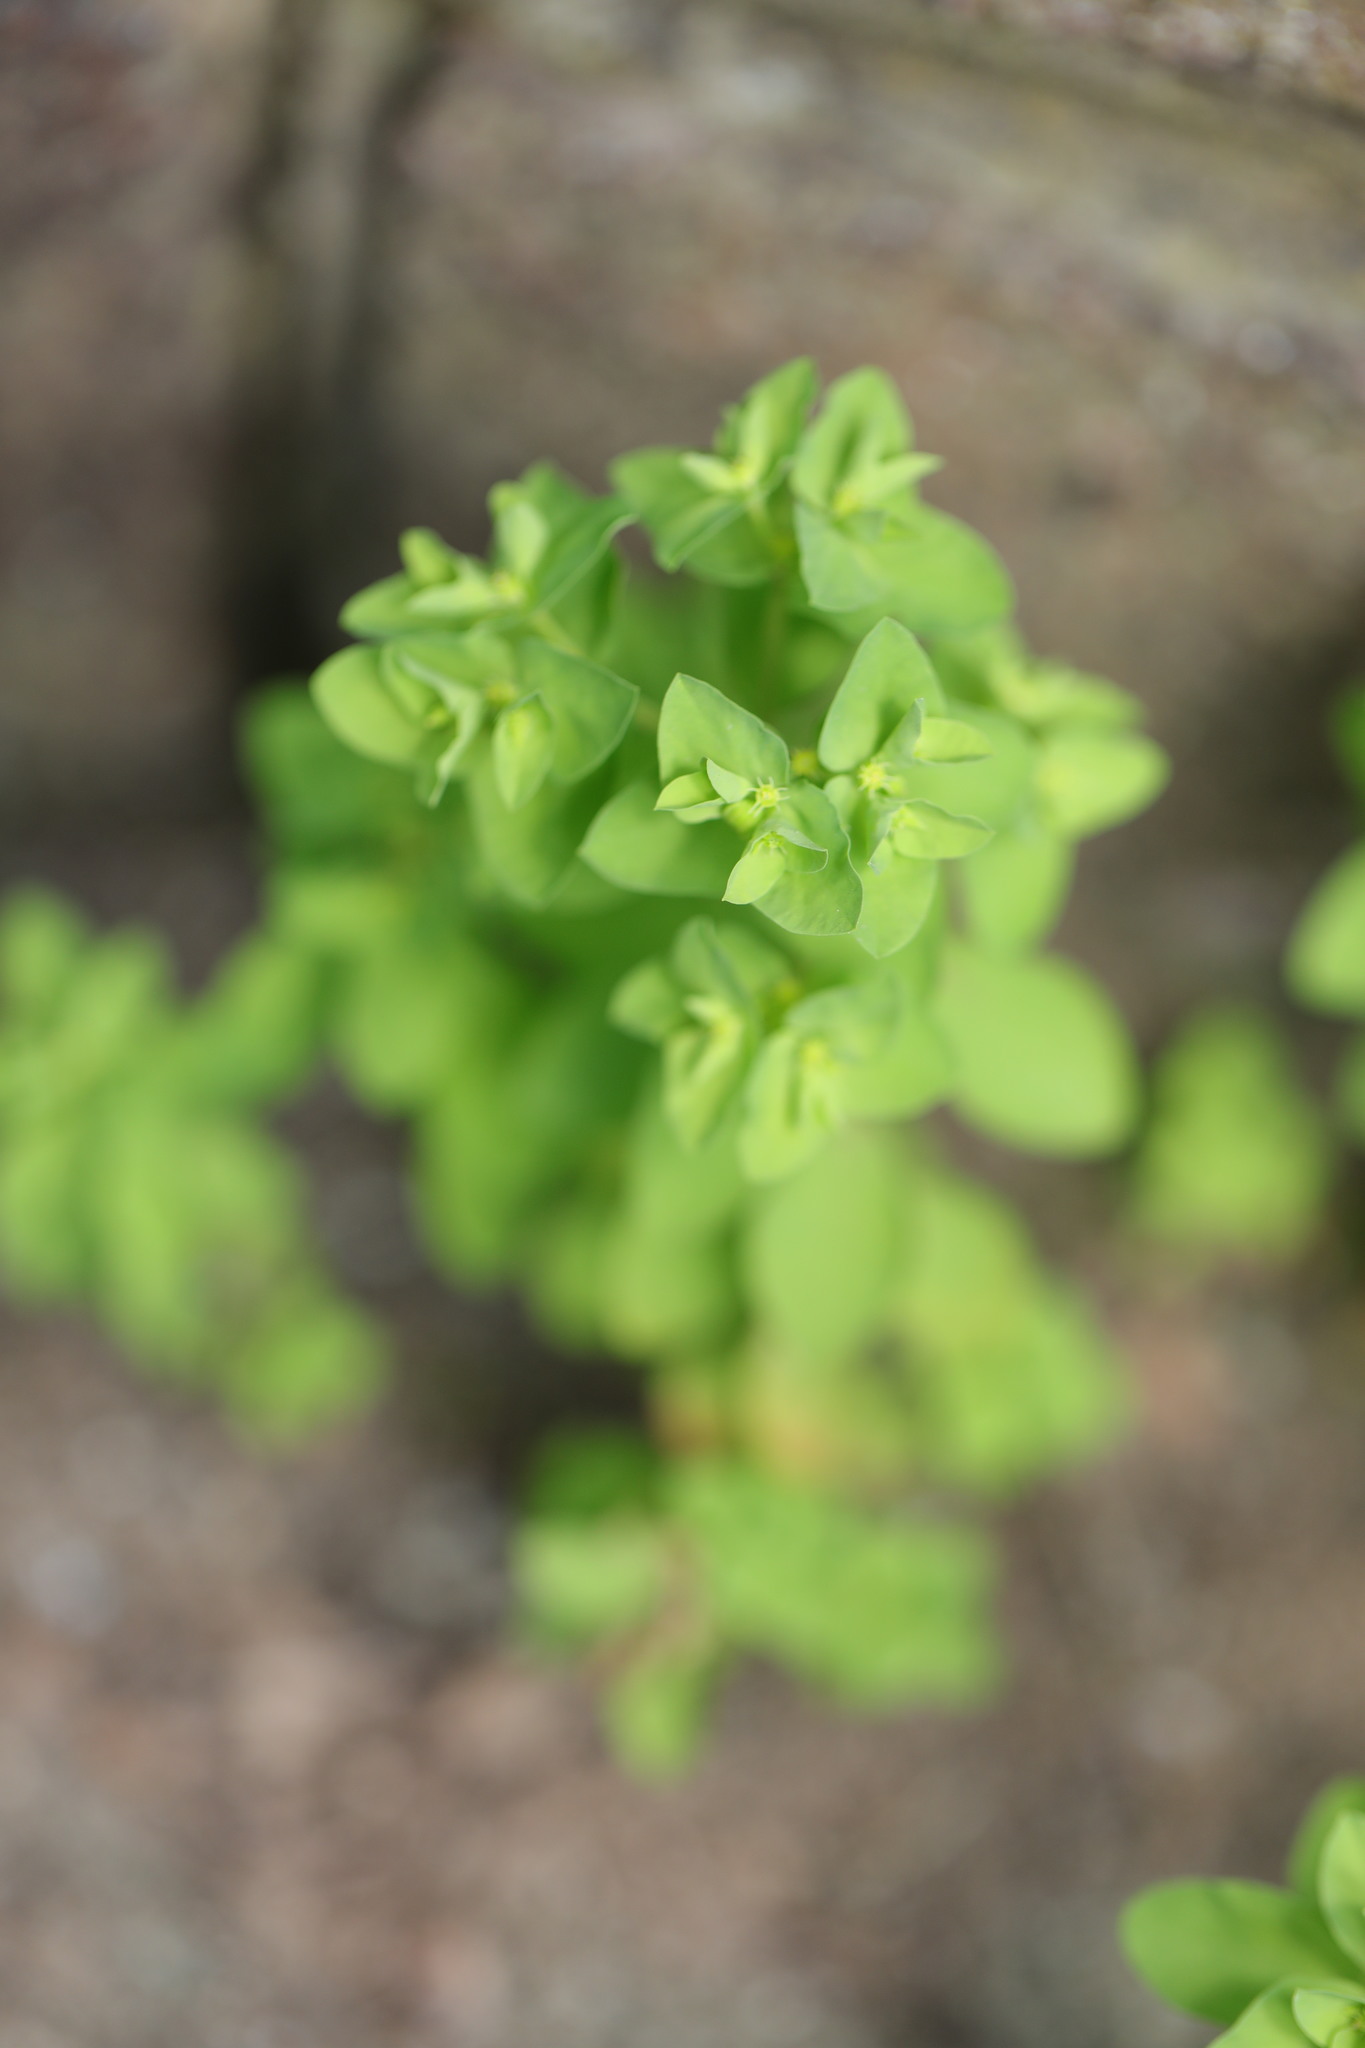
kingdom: Plantae
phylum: Tracheophyta
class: Magnoliopsida
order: Malpighiales
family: Euphorbiaceae
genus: Euphorbia
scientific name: Euphorbia peplus
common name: Petty spurge
